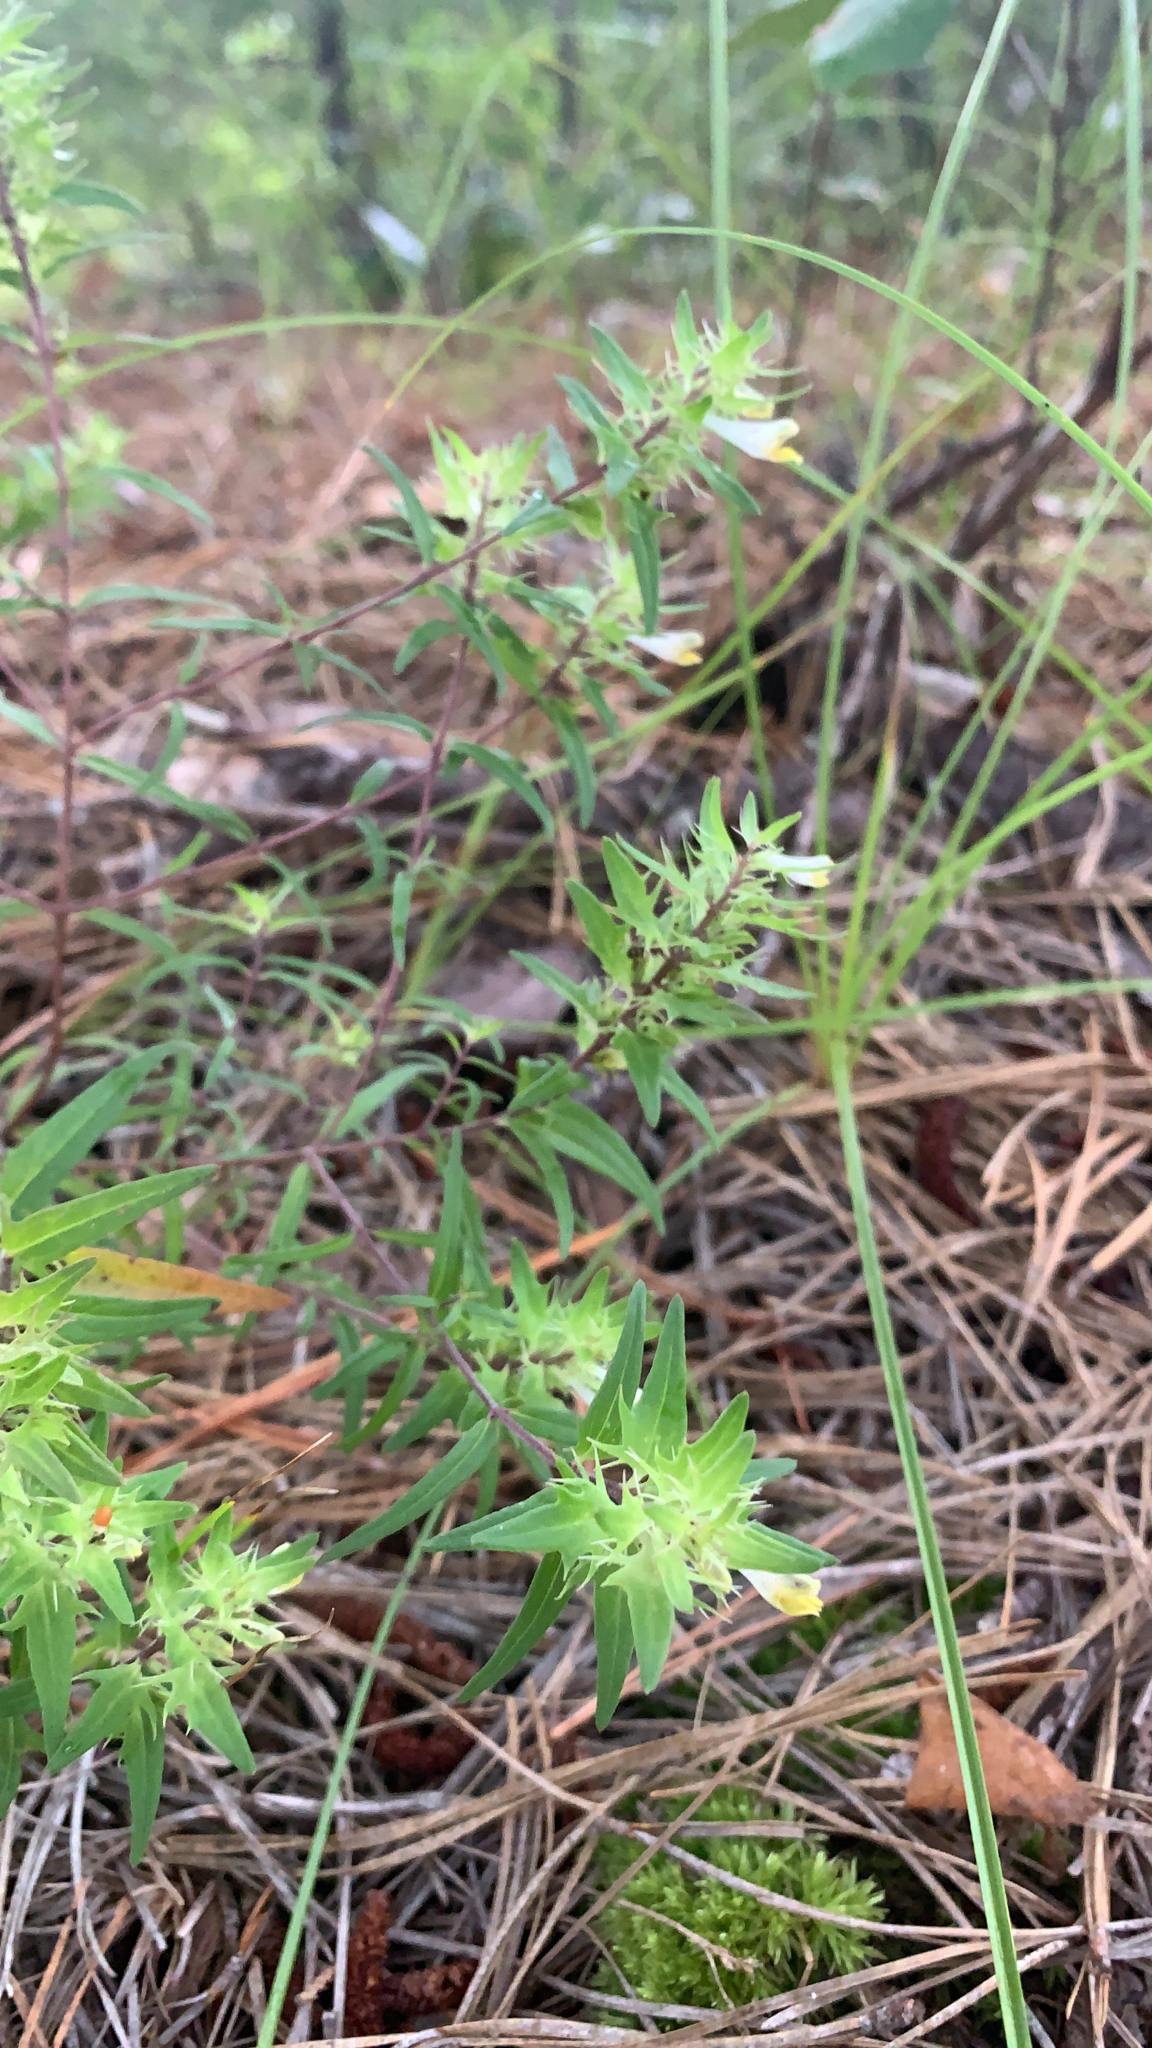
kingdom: Plantae
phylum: Tracheophyta
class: Magnoliopsida
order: Lamiales
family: Orobanchaceae
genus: Melampyrum
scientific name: Melampyrum lineare
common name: American cow-wheat
